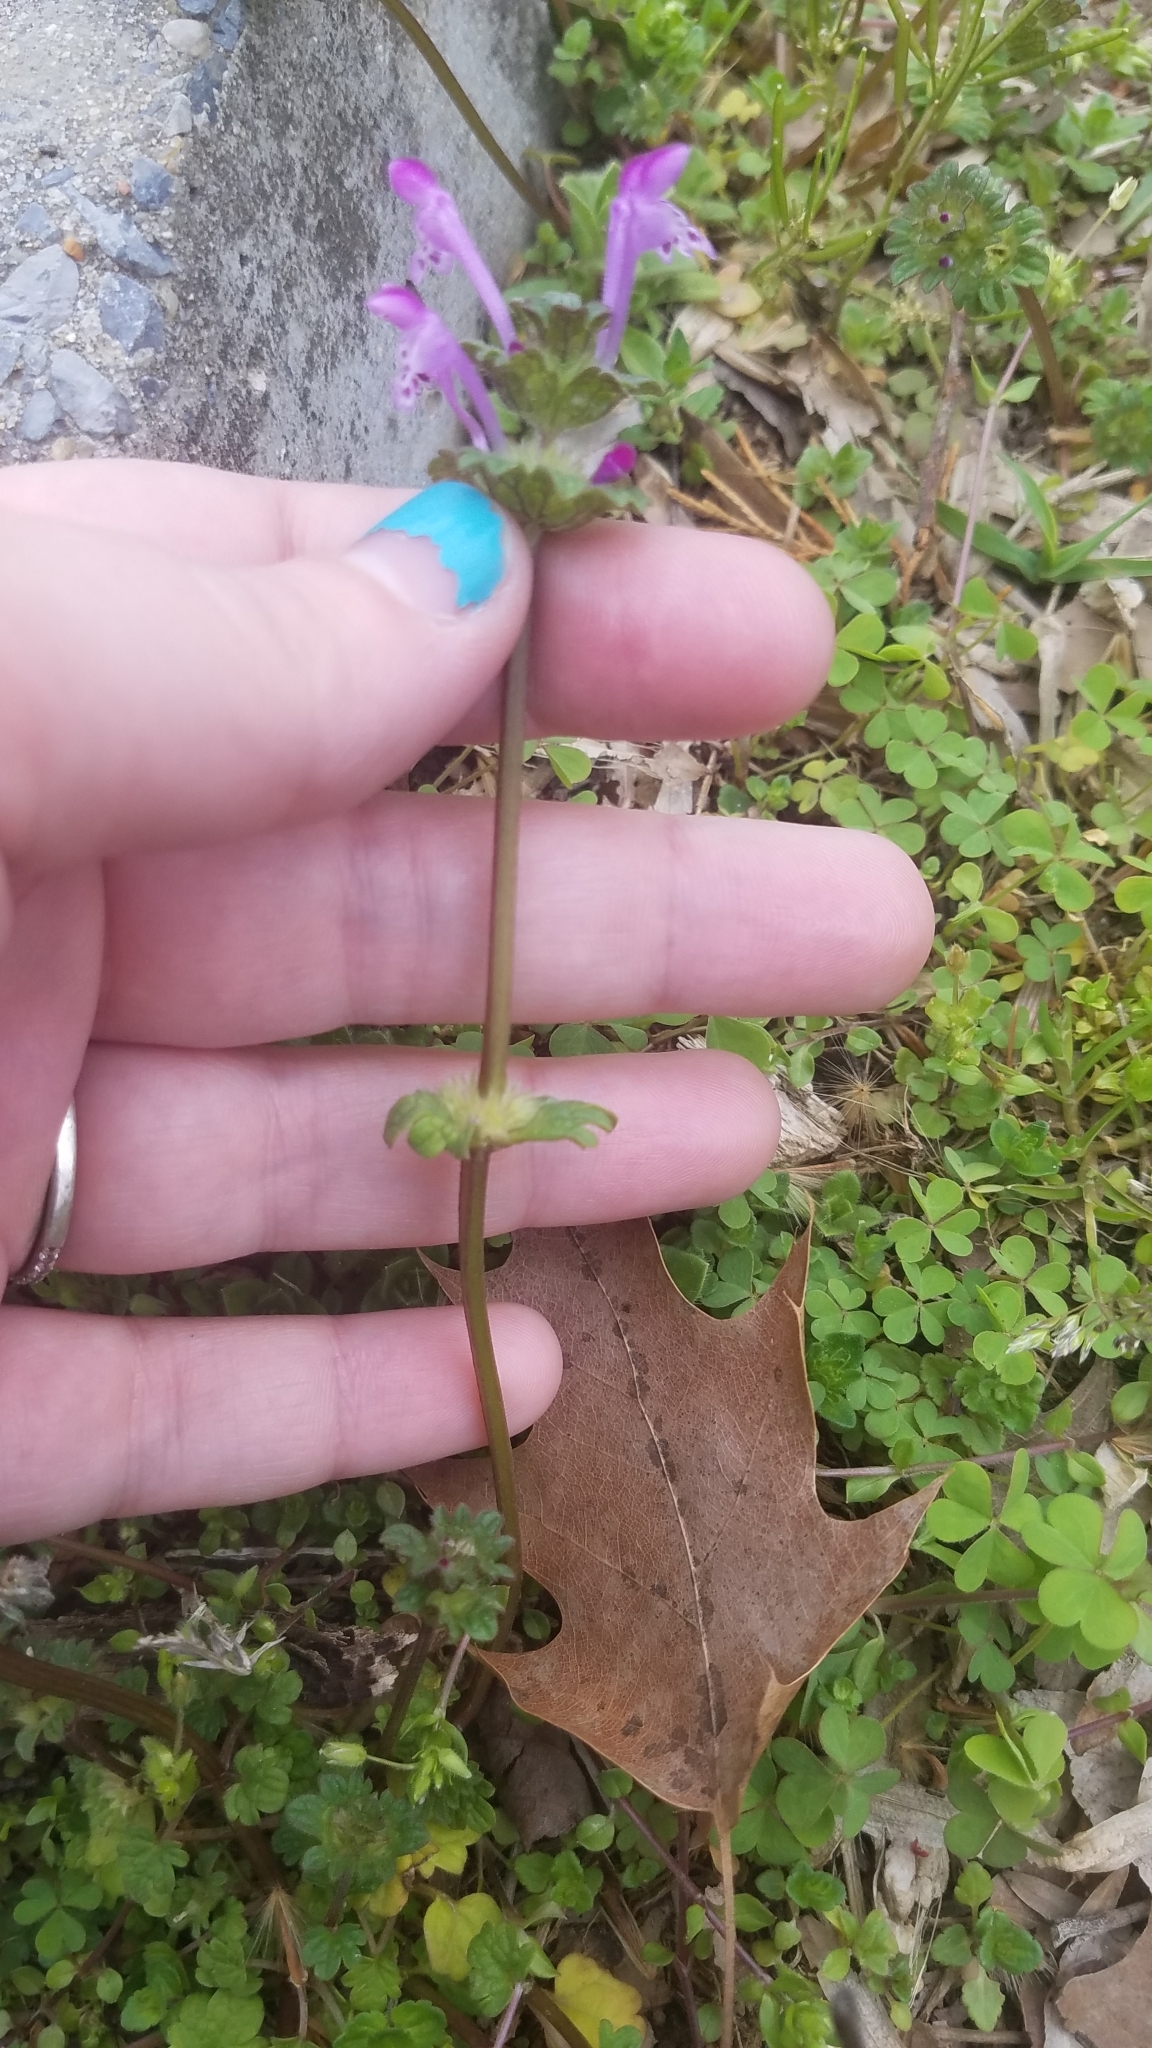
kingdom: Plantae
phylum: Tracheophyta
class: Magnoliopsida
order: Lamiales
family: Lamiaceae
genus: Lamium
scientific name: Lamium amplexicaule
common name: Henbit dead-nettle
